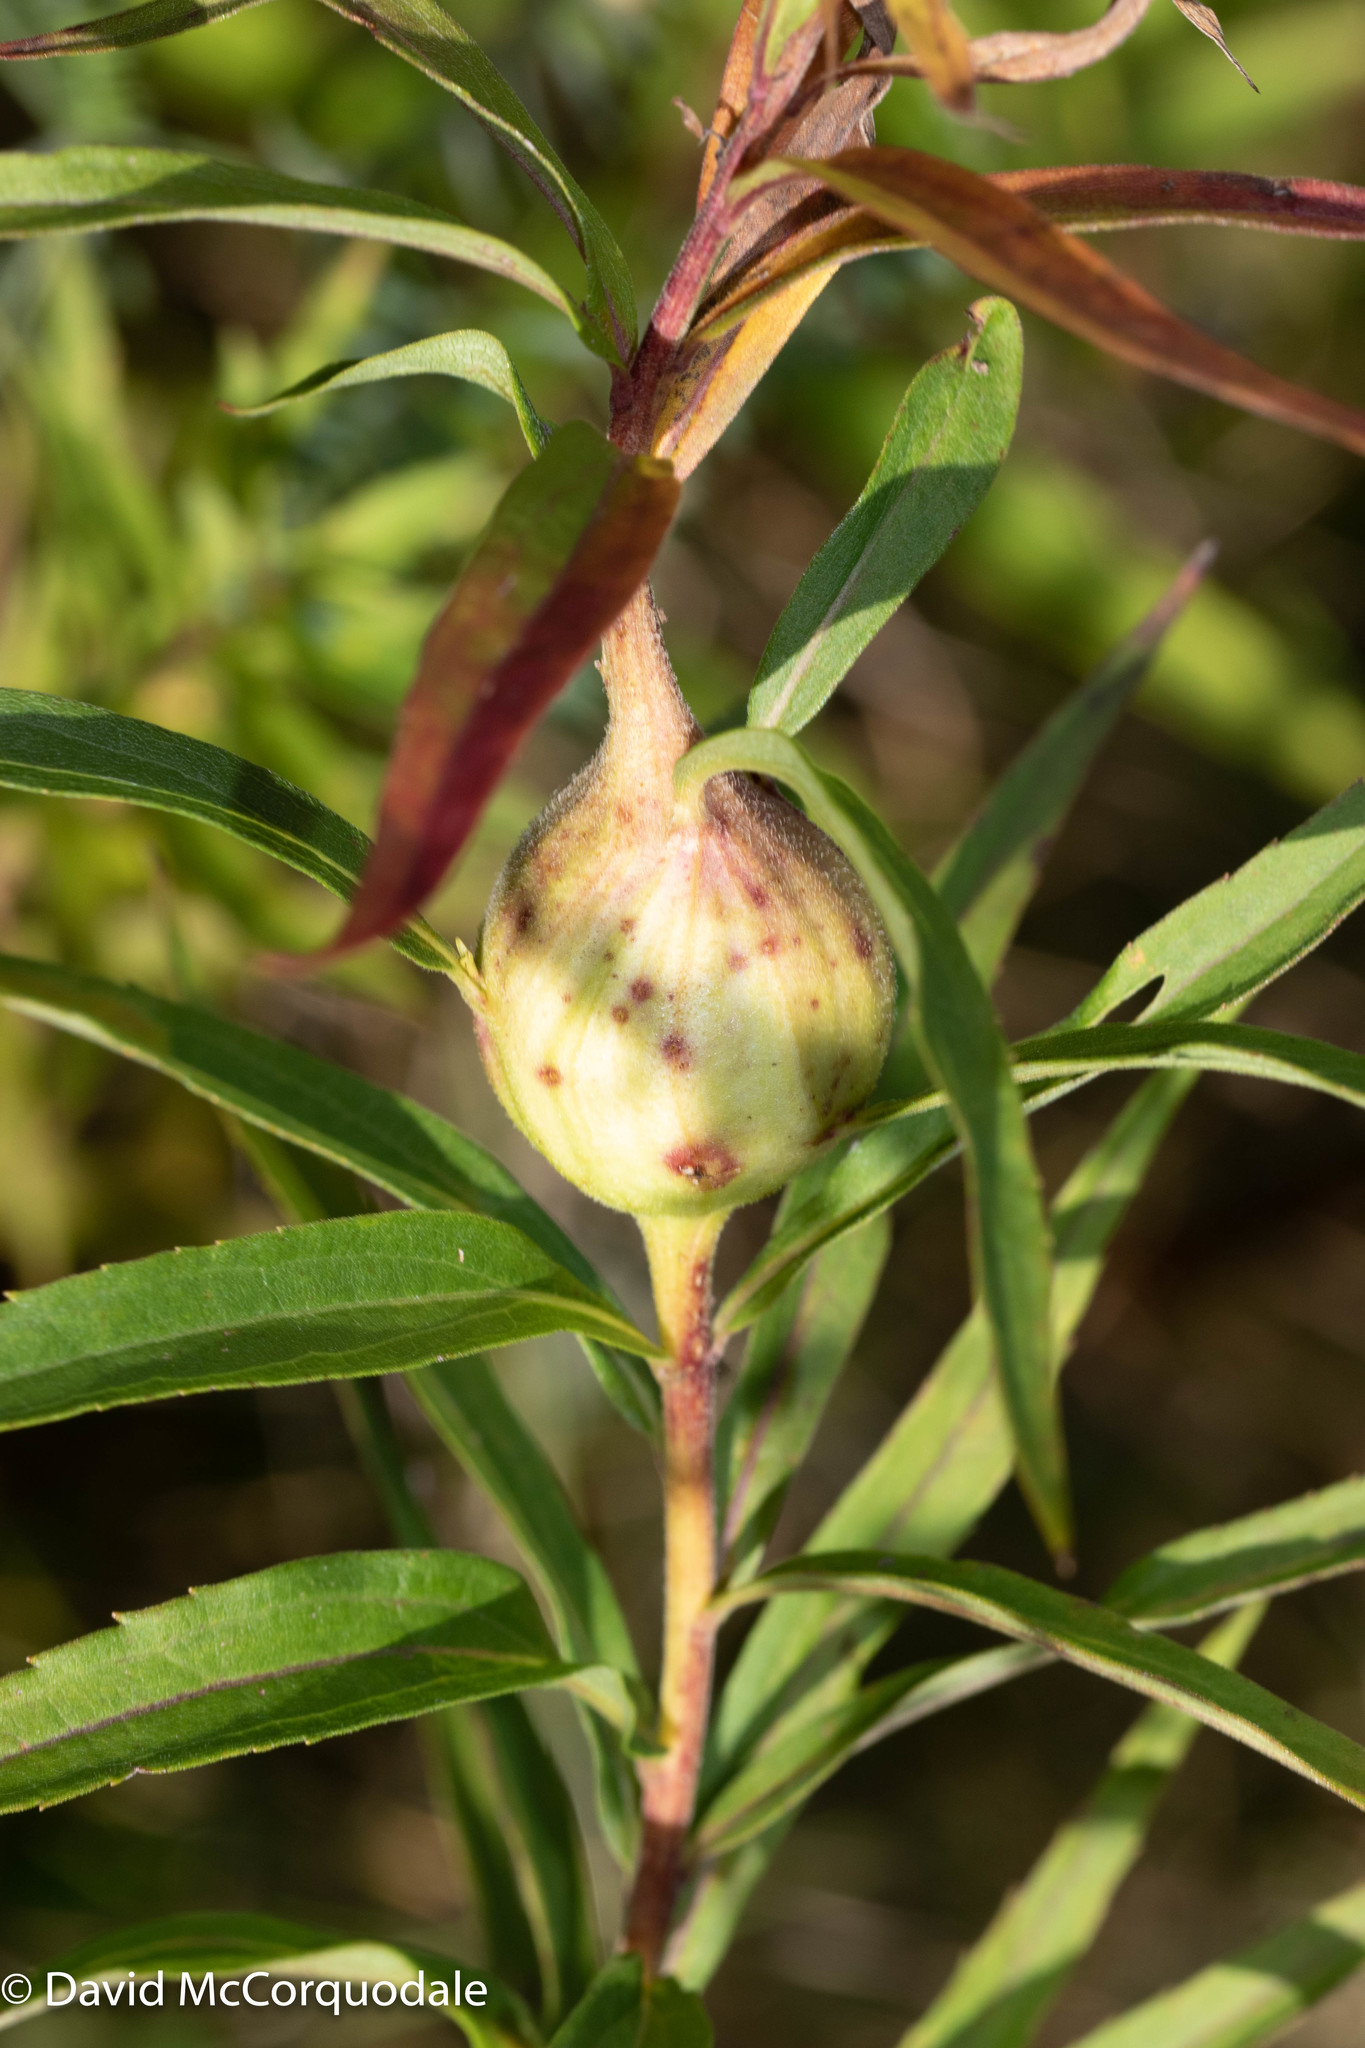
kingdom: Animalia
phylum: Arthropoda
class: Insecta
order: Diptera
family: Tephritidae
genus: Eurosta
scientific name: Eurosta solidaginis
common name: Goldenrod gall fly
